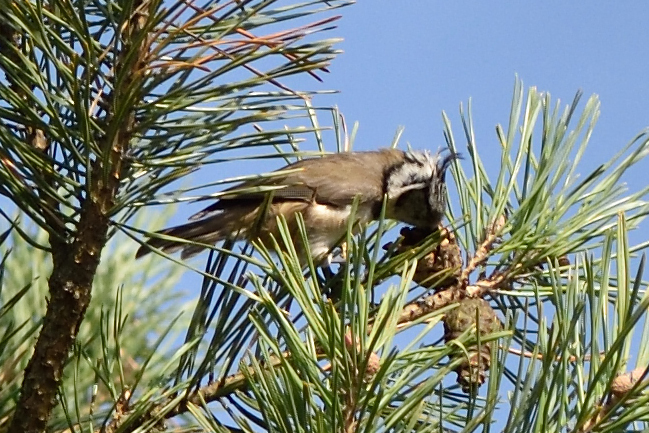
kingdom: Animalia
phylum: Chordata
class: Aves
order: Passeriformes
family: Paridae
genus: Lophophanes
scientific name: Lophophanes cristatus
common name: European crested tit
